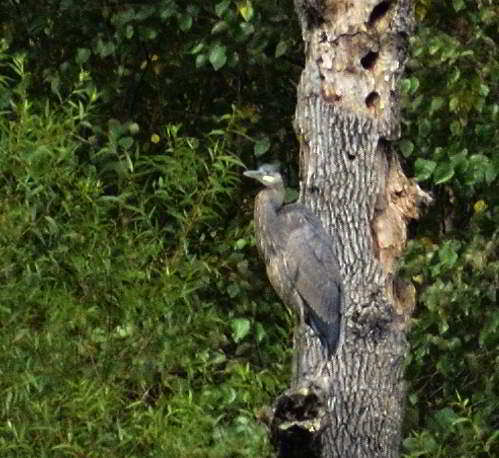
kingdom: Animalia
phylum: Chordata
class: Aves
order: Pelecaniformes
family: Ardeidae
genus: Ardea
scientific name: Ardea herodias
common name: Great blue heron
